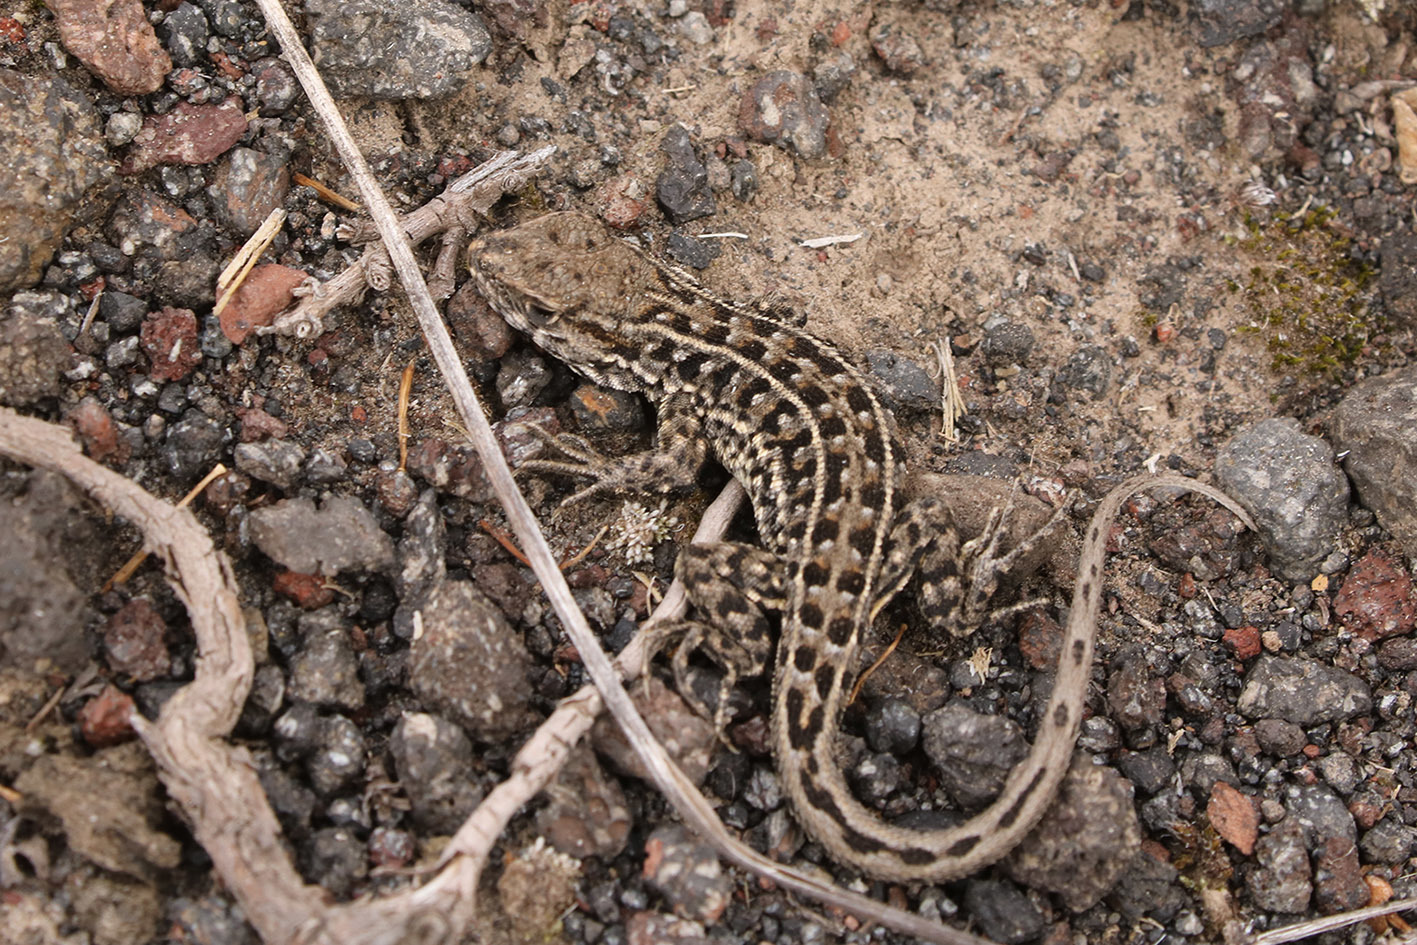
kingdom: Animalia
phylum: Chordata
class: Squamata
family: Liolaemidae
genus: Liolaemus
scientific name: Liolaemus lineomaculatus
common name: Decorated tree iguana
